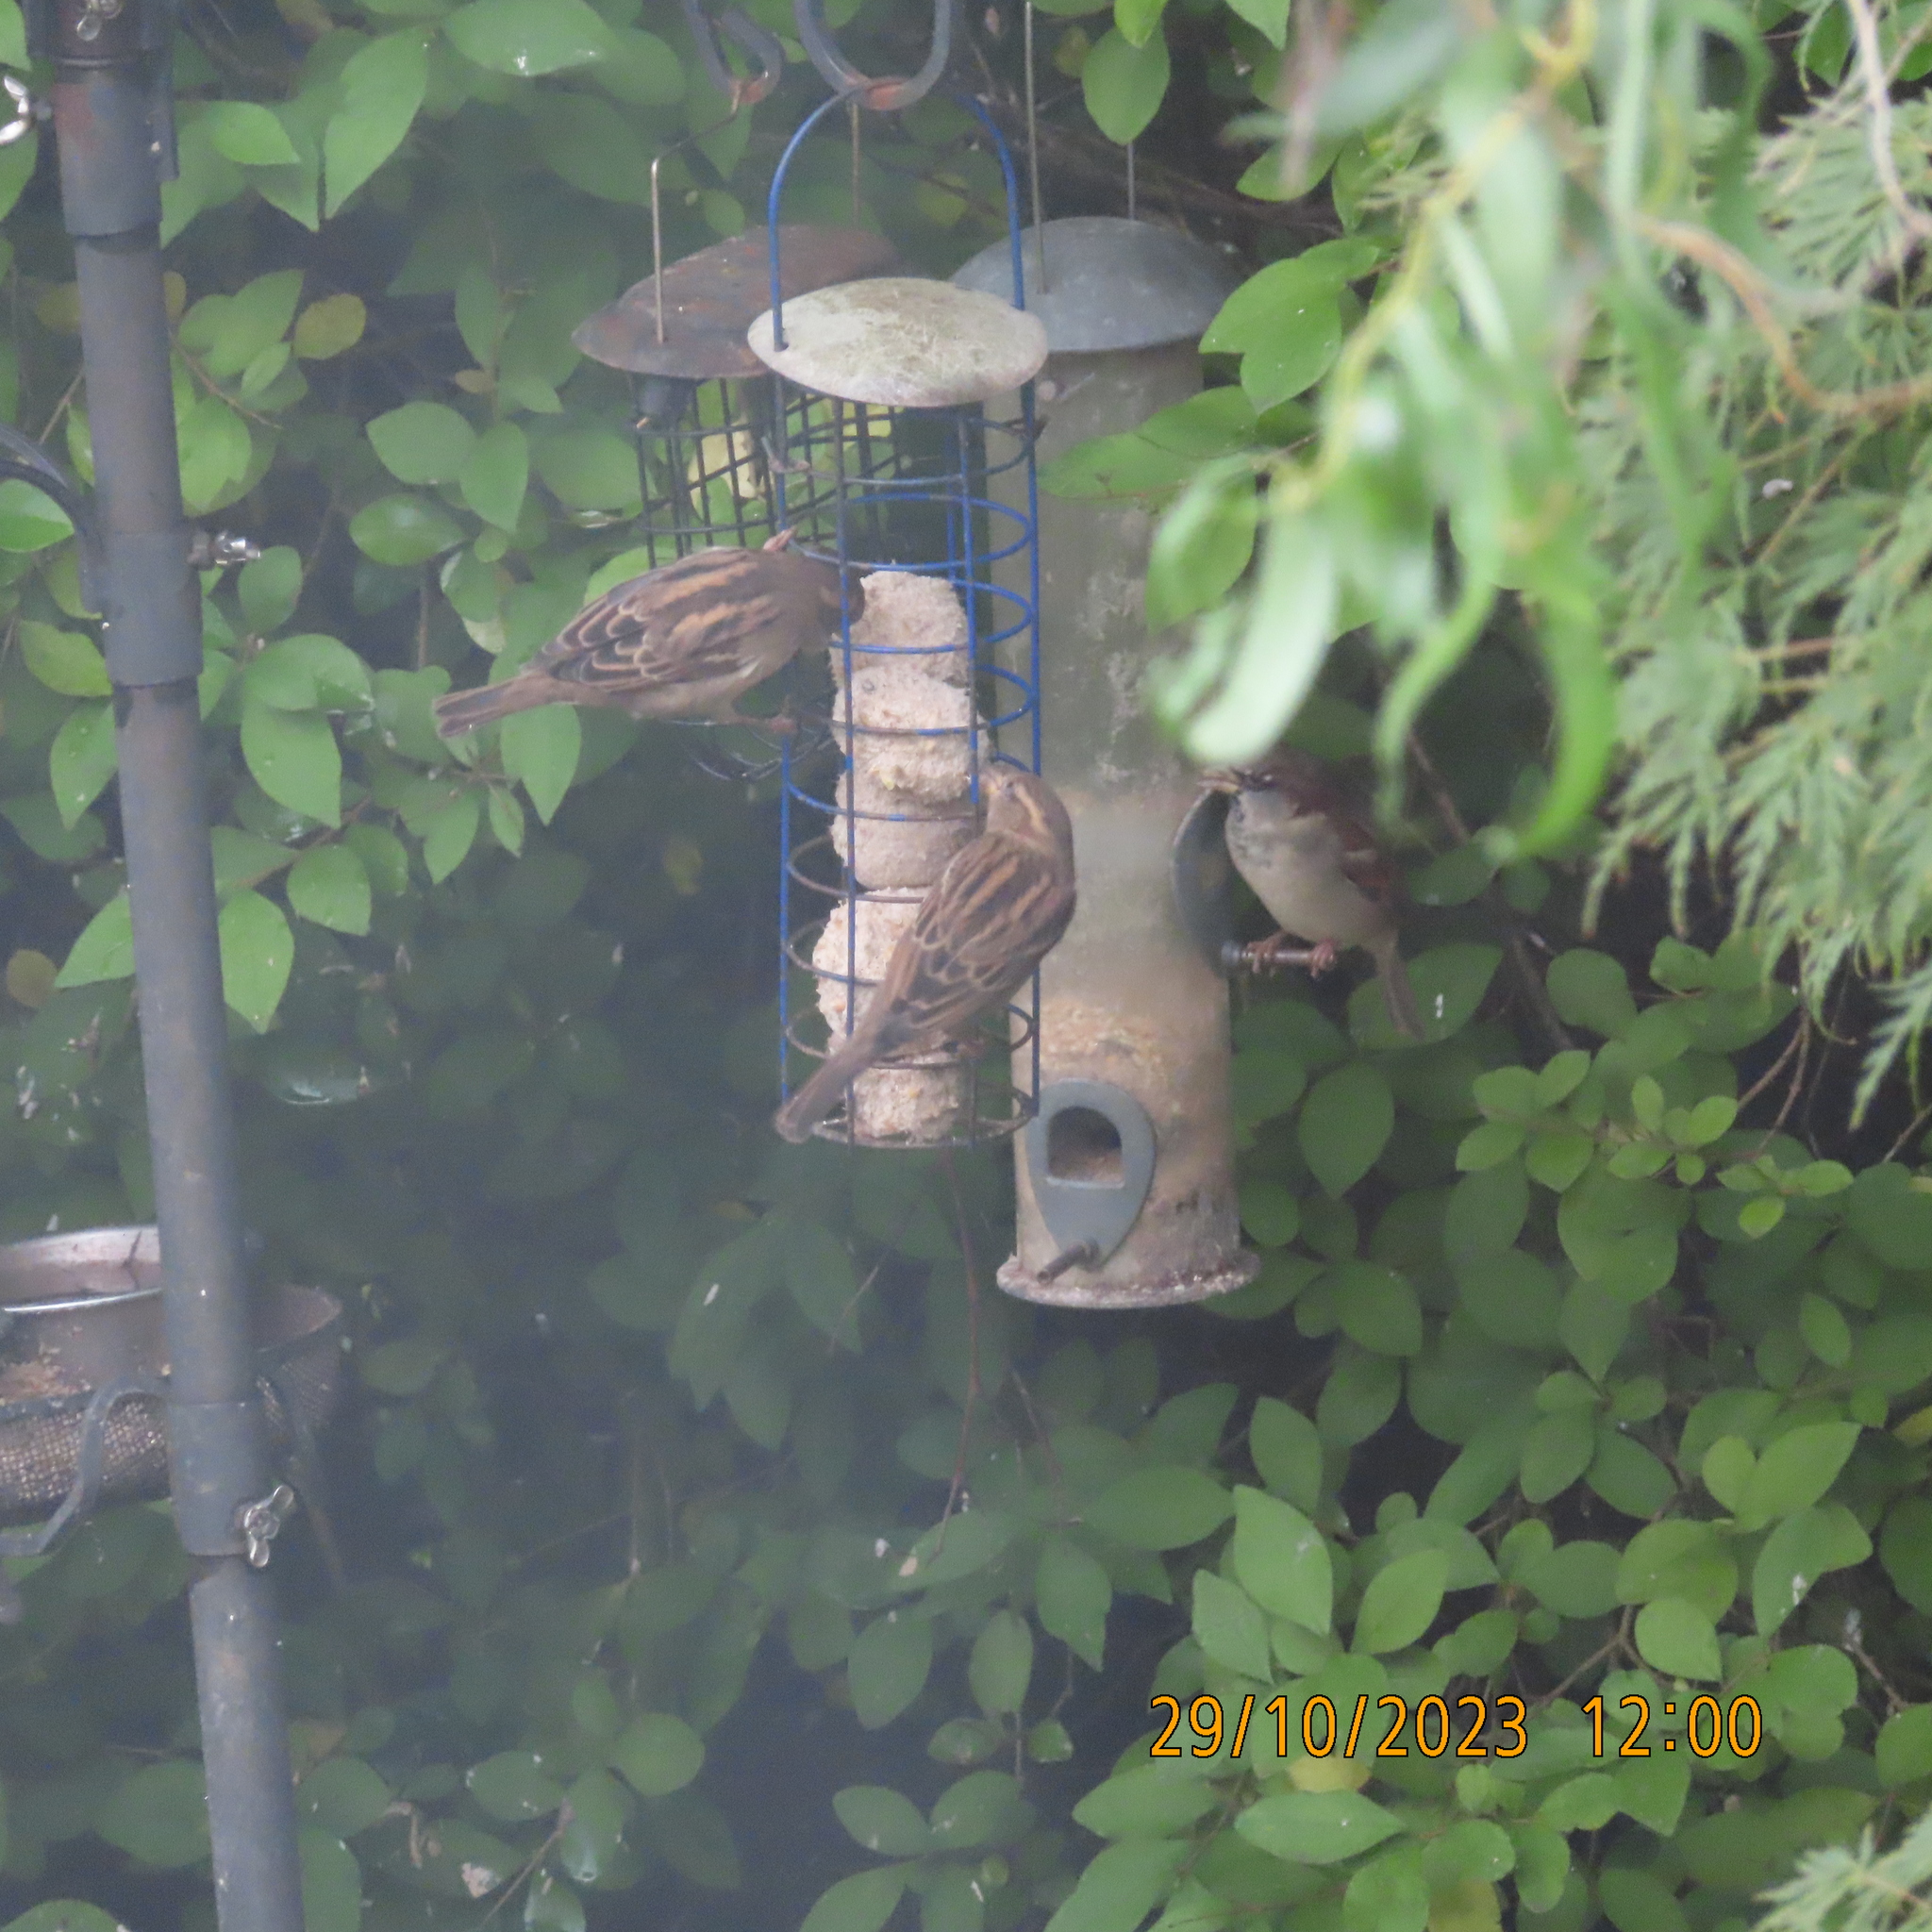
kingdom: Animalia
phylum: Chordata
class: Aves
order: Passeriformes
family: Passeridae
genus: Passer
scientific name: Passer domesticus
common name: House sparrow
